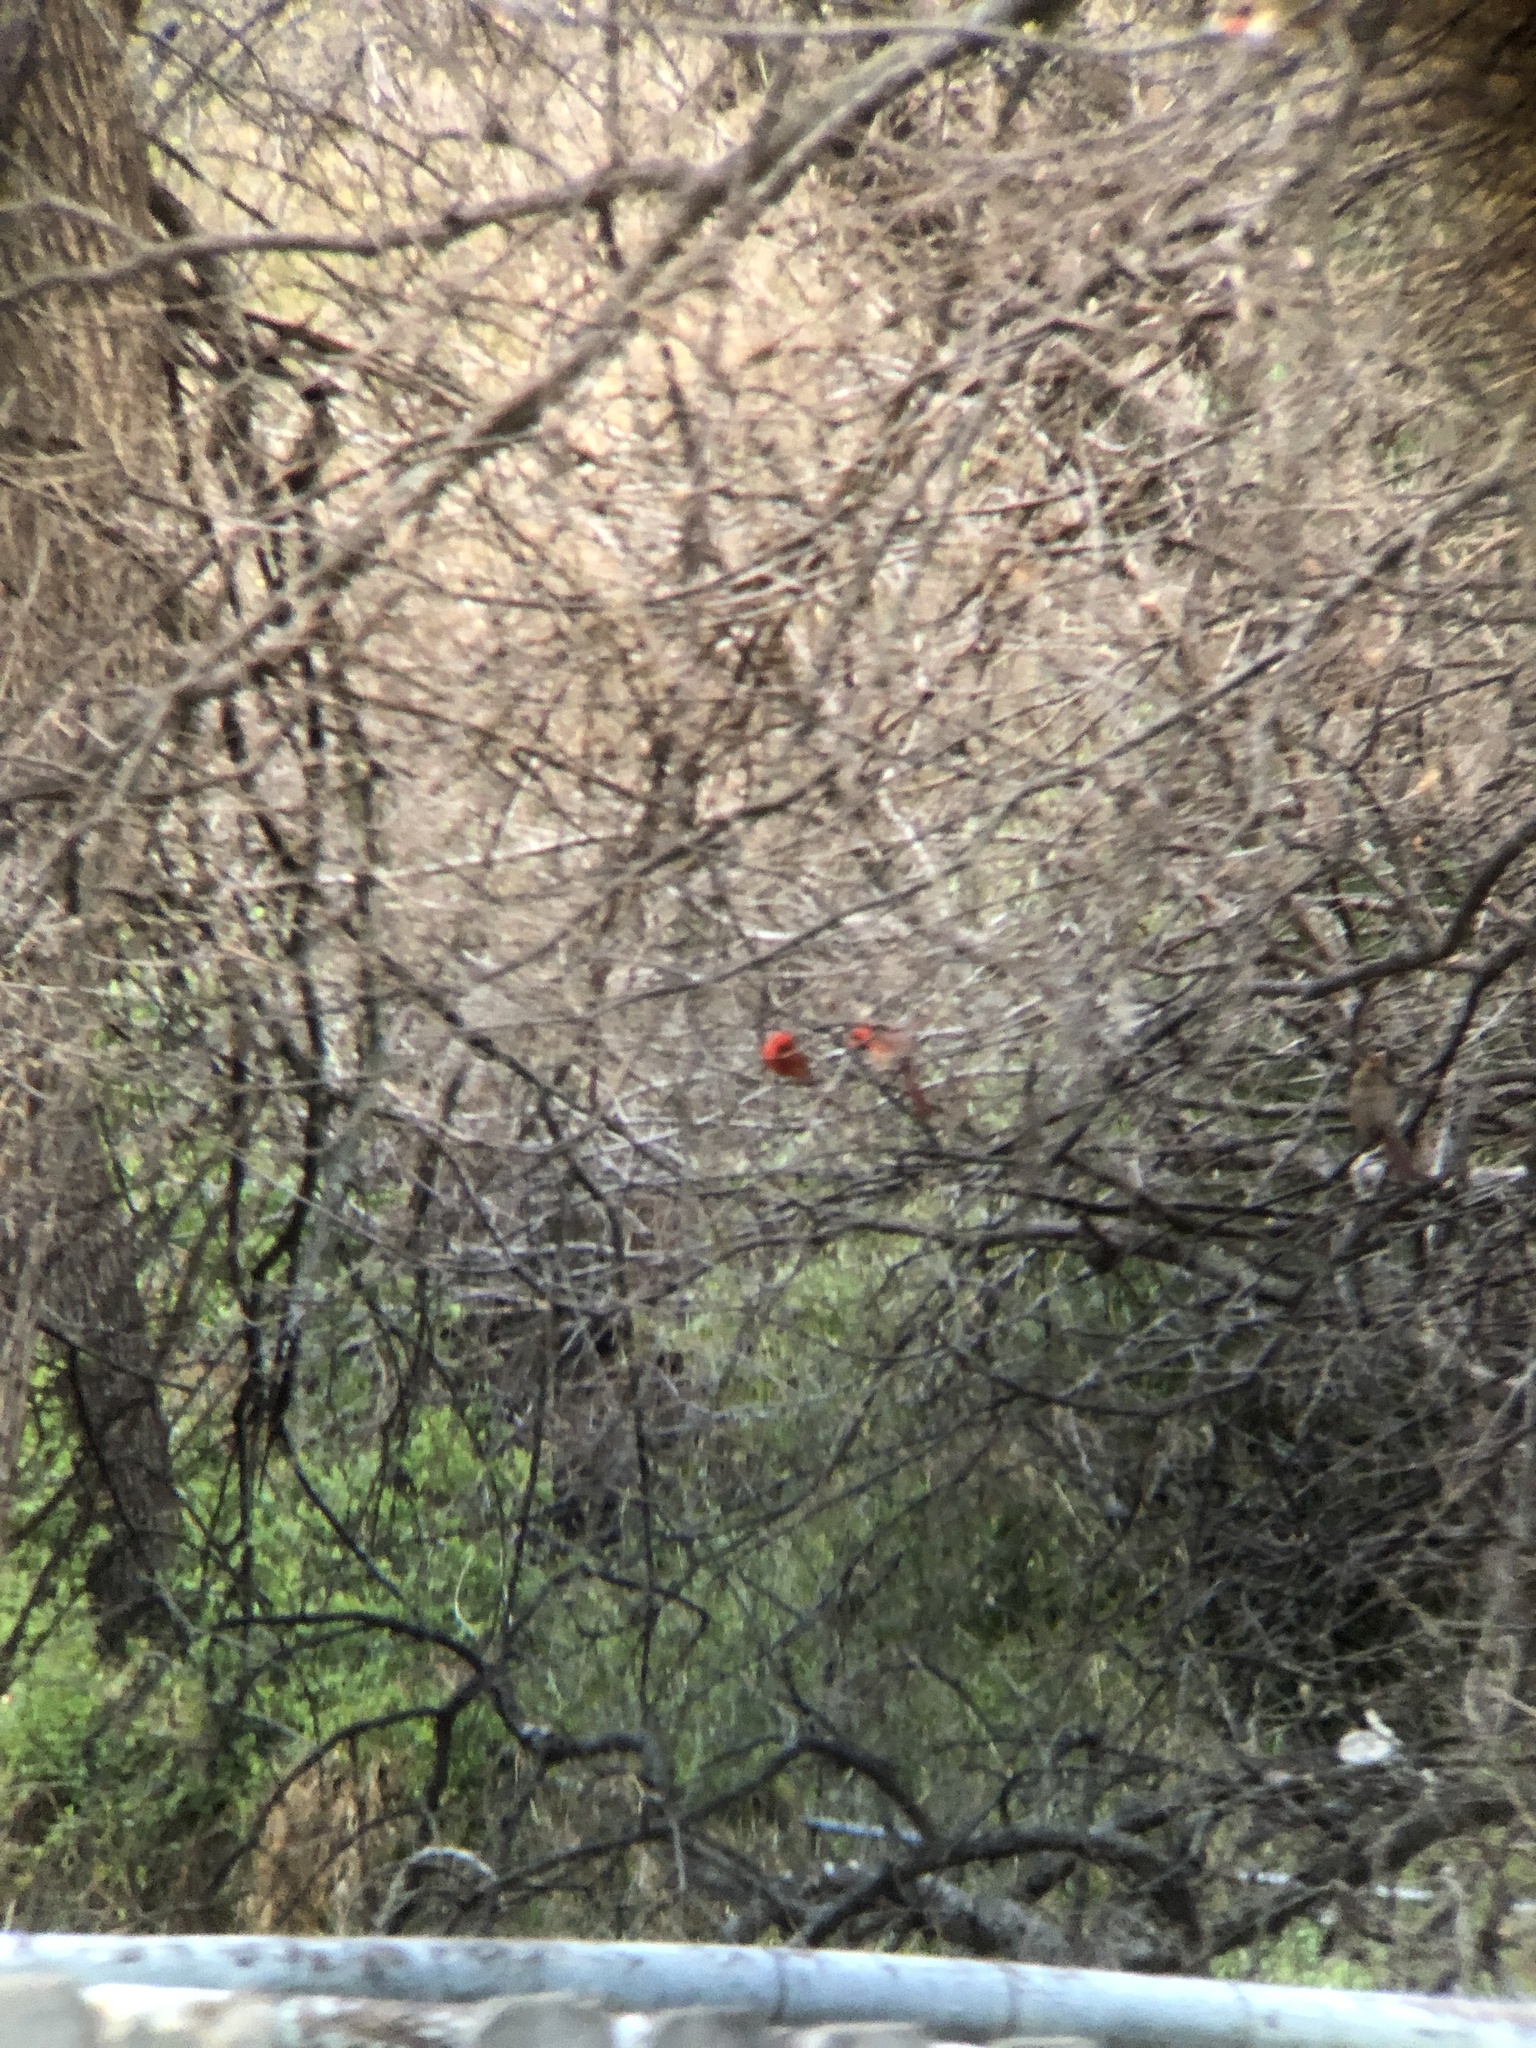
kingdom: Animalia
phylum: Chordata
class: Aves
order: Passeriformes
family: Cardinalidae
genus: Cardinalis
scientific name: Cardinalis cardinalis
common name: Northern cardinal
